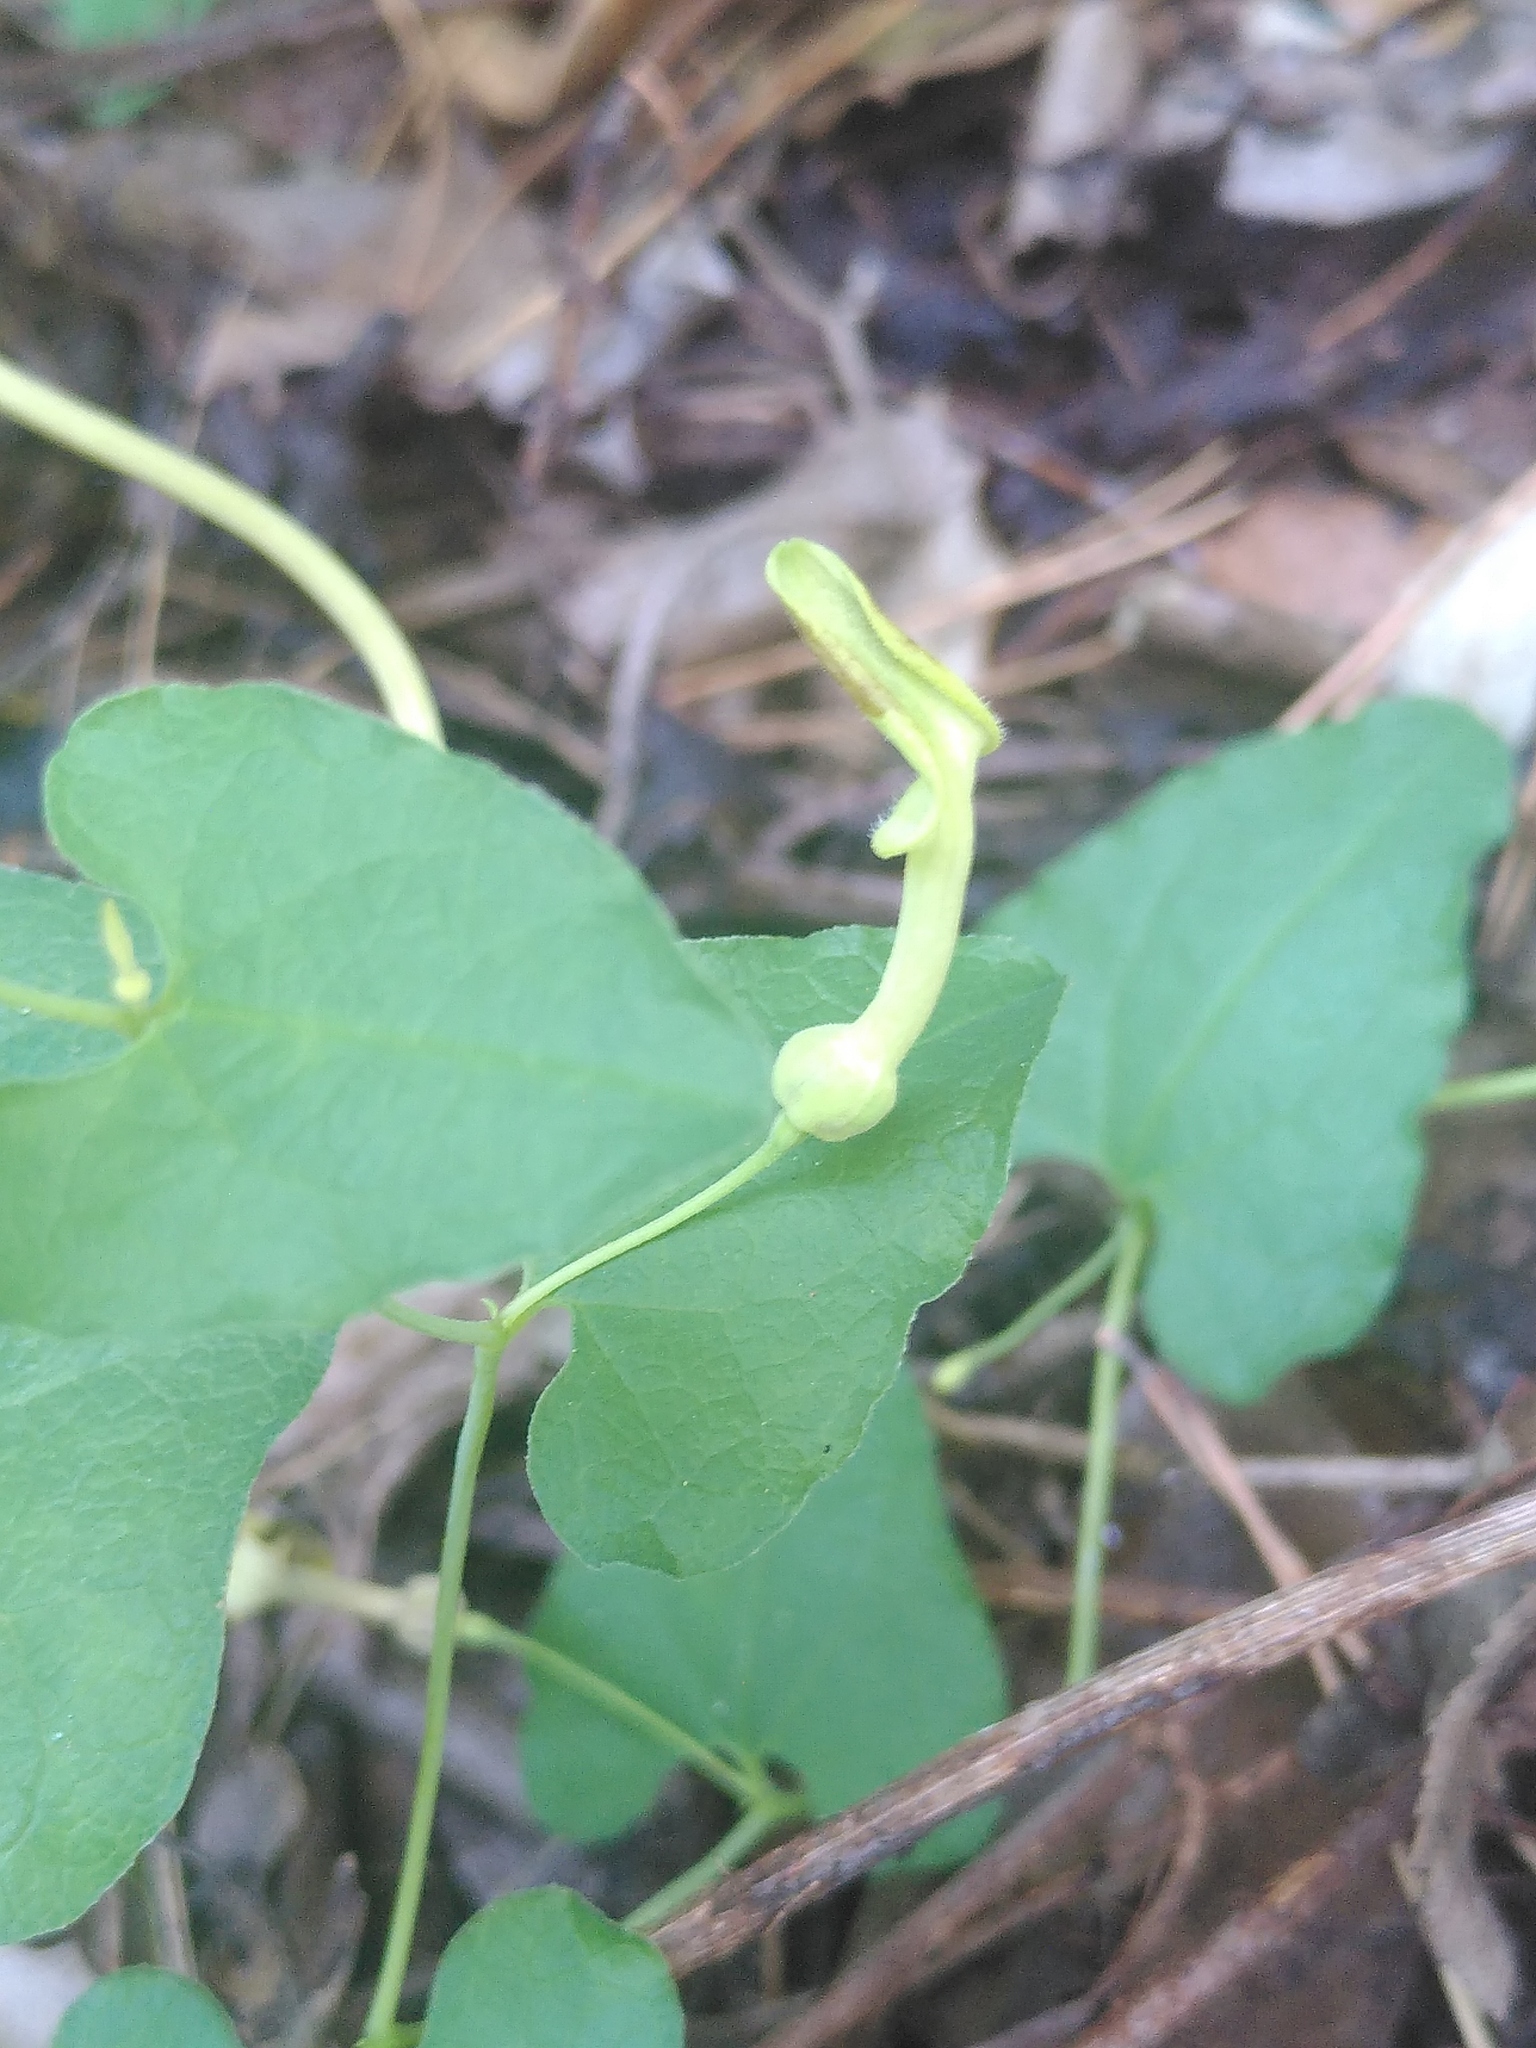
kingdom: Plantae
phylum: Tracheophyta
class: Magnoliopsida
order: Piperales
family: Aristolochiaceae
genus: Aristolochia
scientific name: Aristolochia pistolochia
